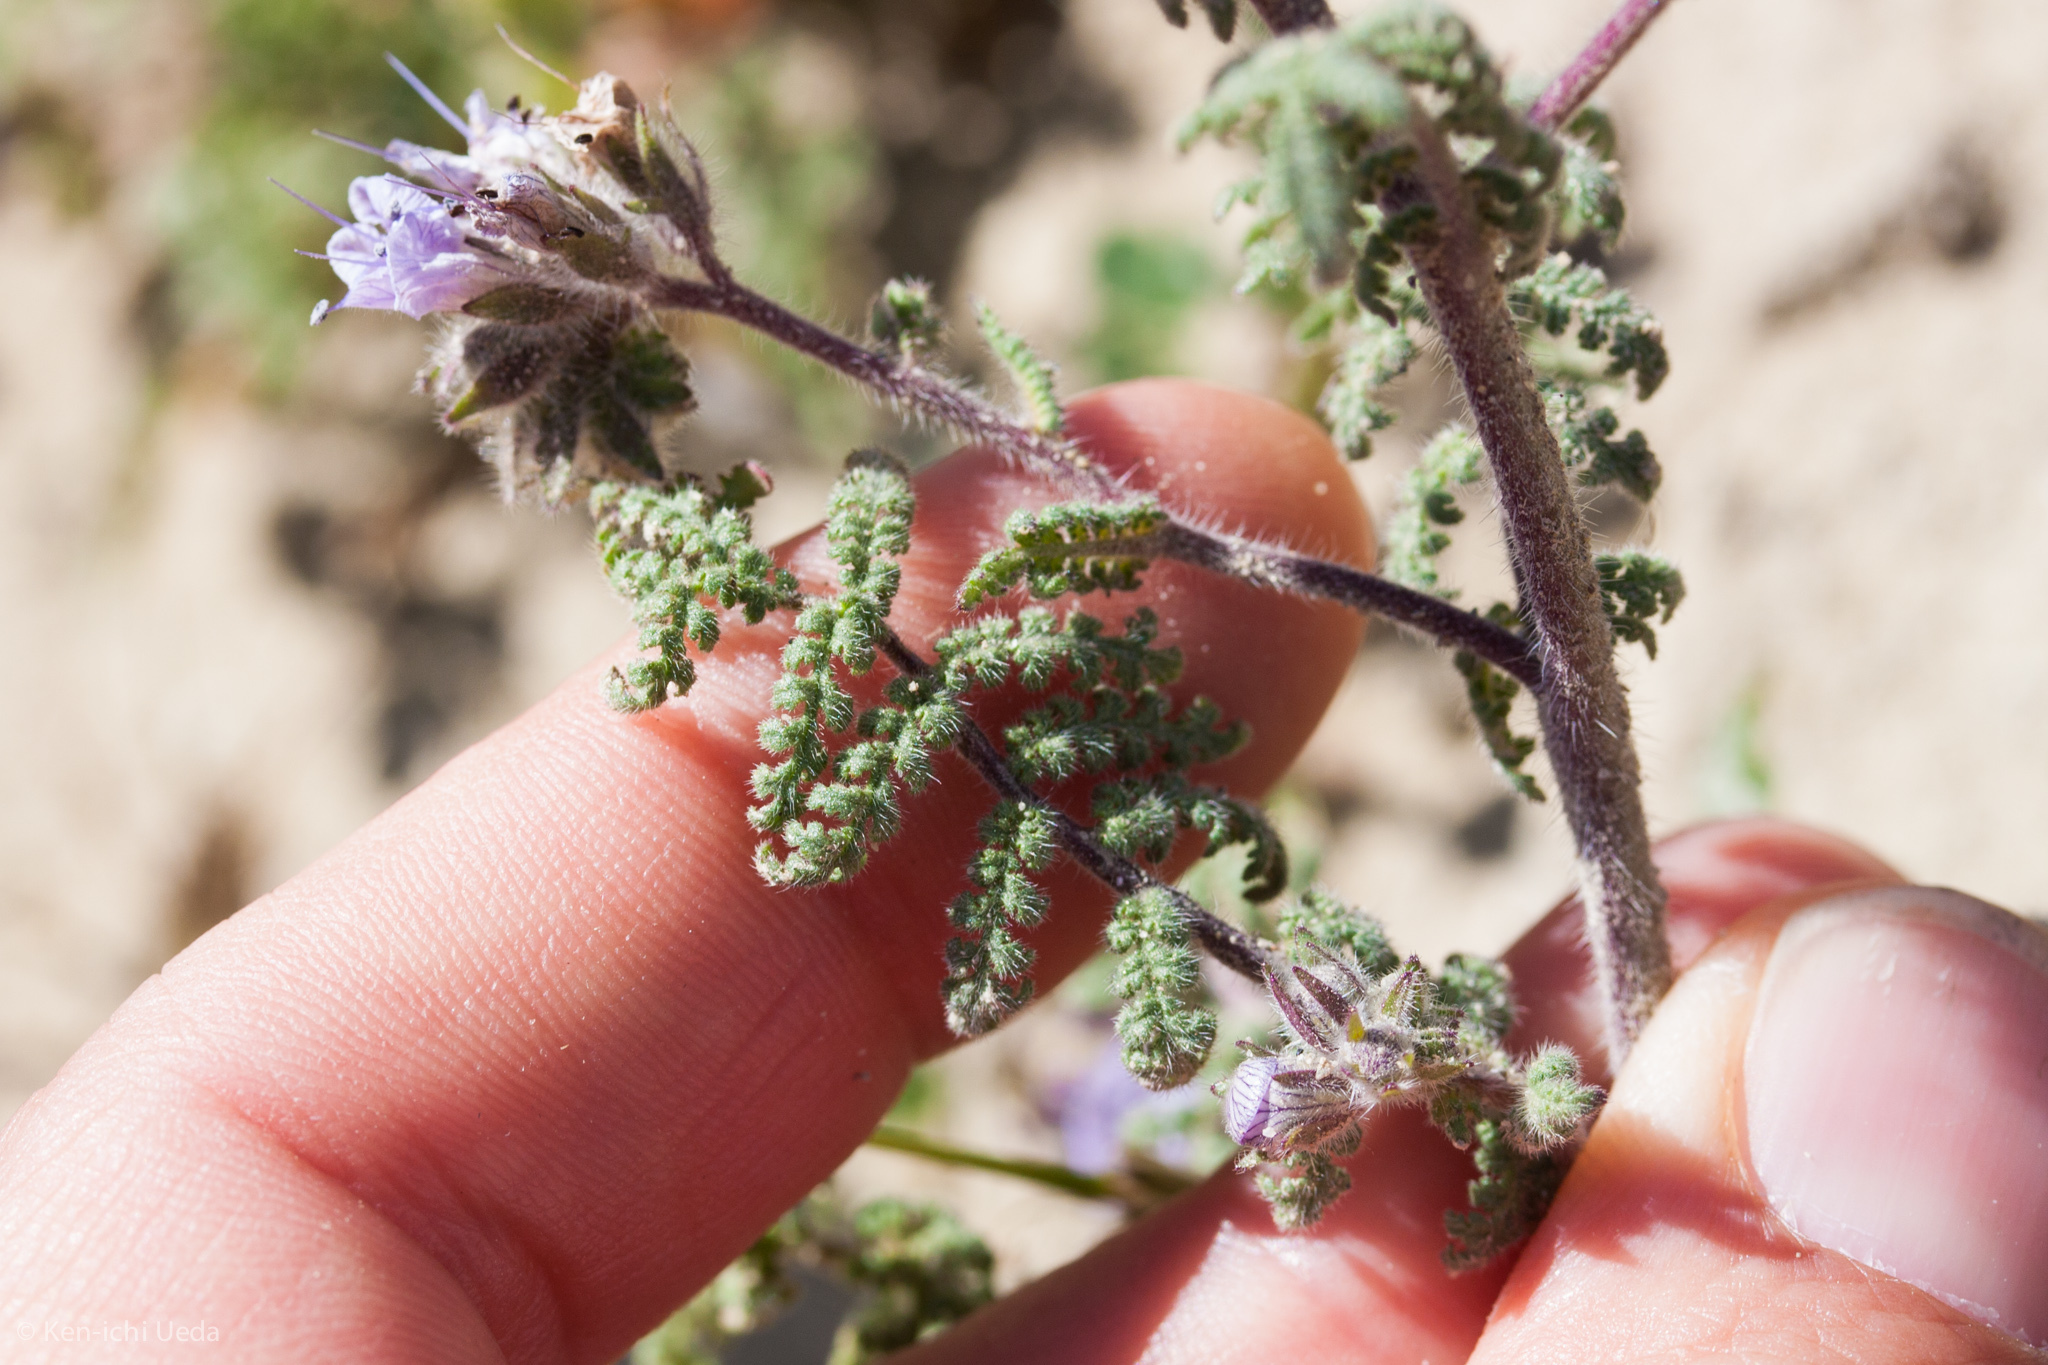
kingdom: Plantae
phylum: Tracheophyta
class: Magnoliopsida
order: Boraginales
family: Hydrophyllaceae
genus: Phacelia
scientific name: Phacelia tanacetifolia
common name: Phacelia
